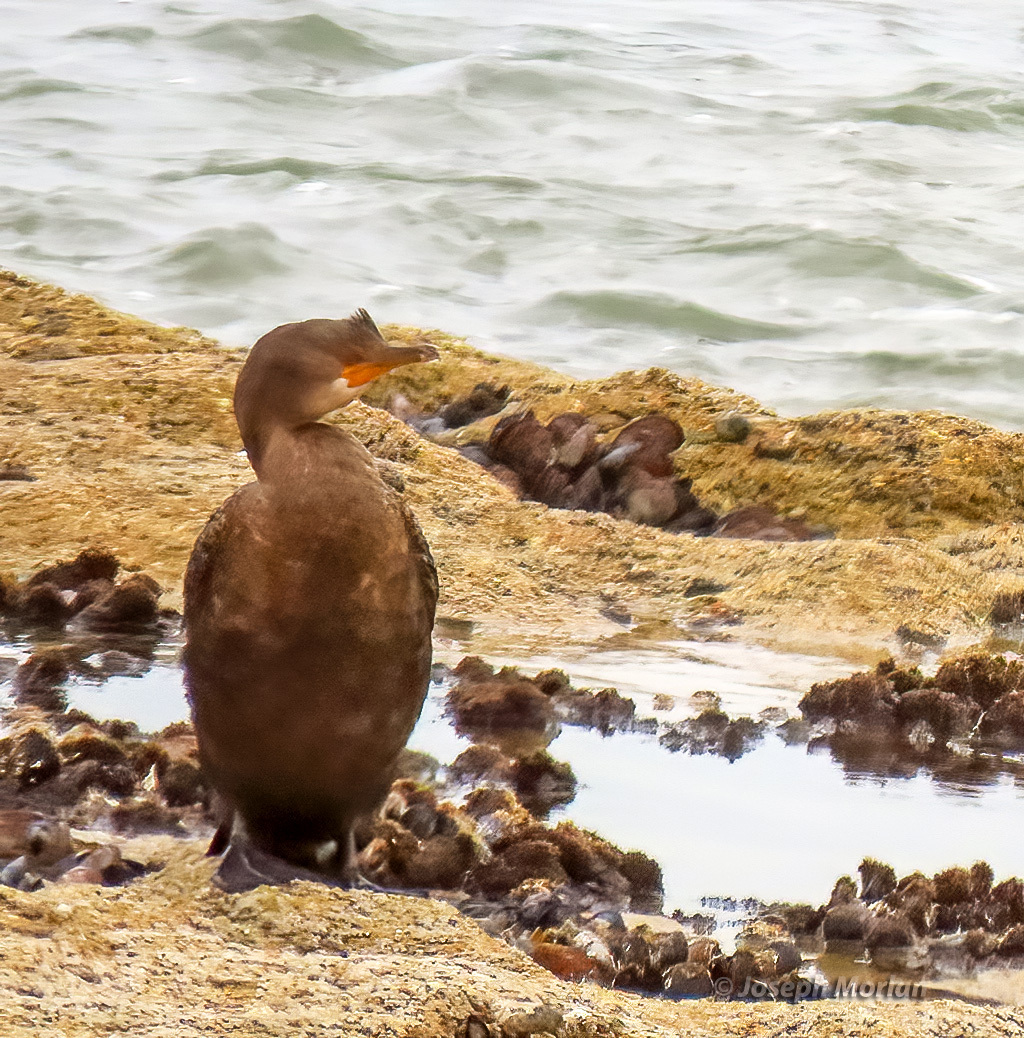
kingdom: Animalia
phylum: Chordata
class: Aves
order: Suliformes
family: Phalacrocoracidae
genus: Microcarbo
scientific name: Microcarbo coronatus
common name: Crowned cormorant
